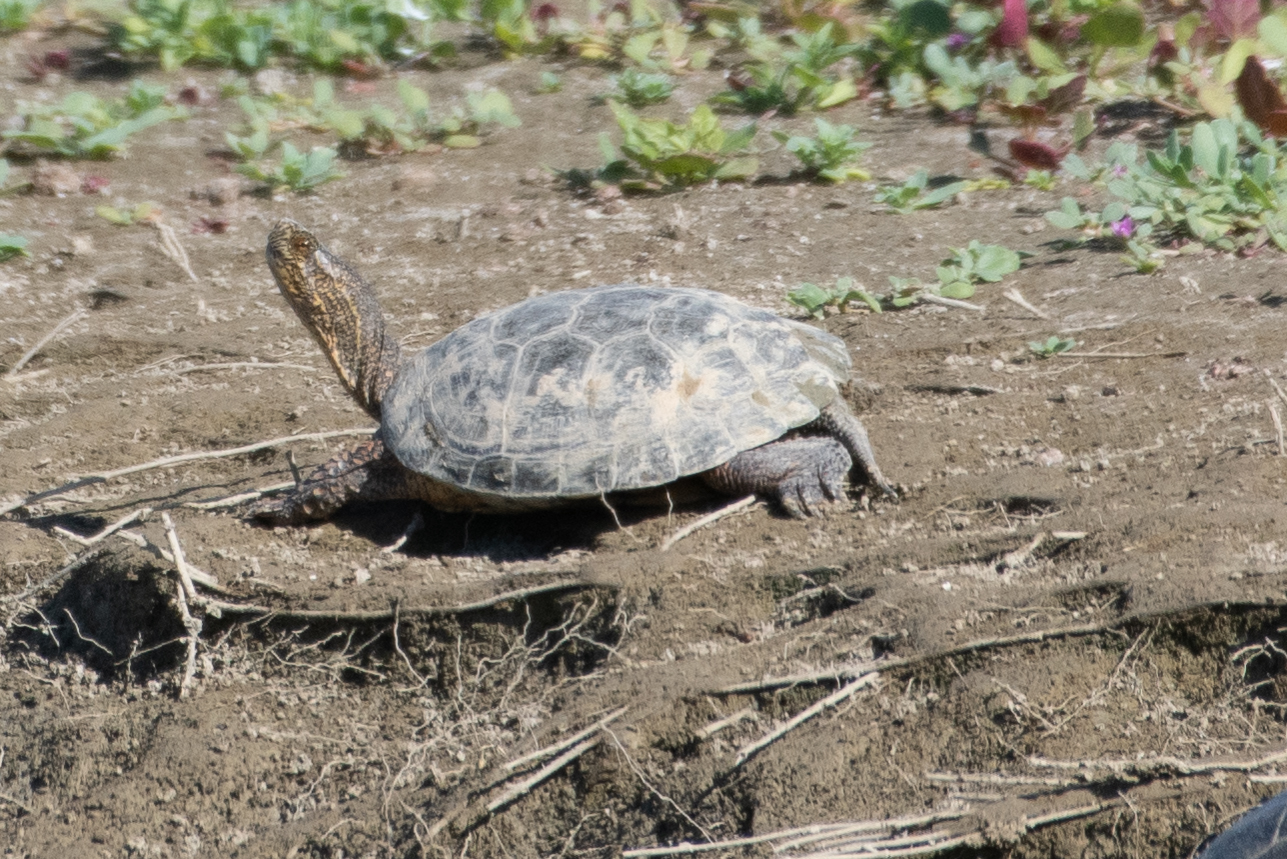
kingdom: Animalia
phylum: Chordata
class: Testudines
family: Emydidae
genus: Actinemys
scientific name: Actinemys marmorata
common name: Western pond turtle
